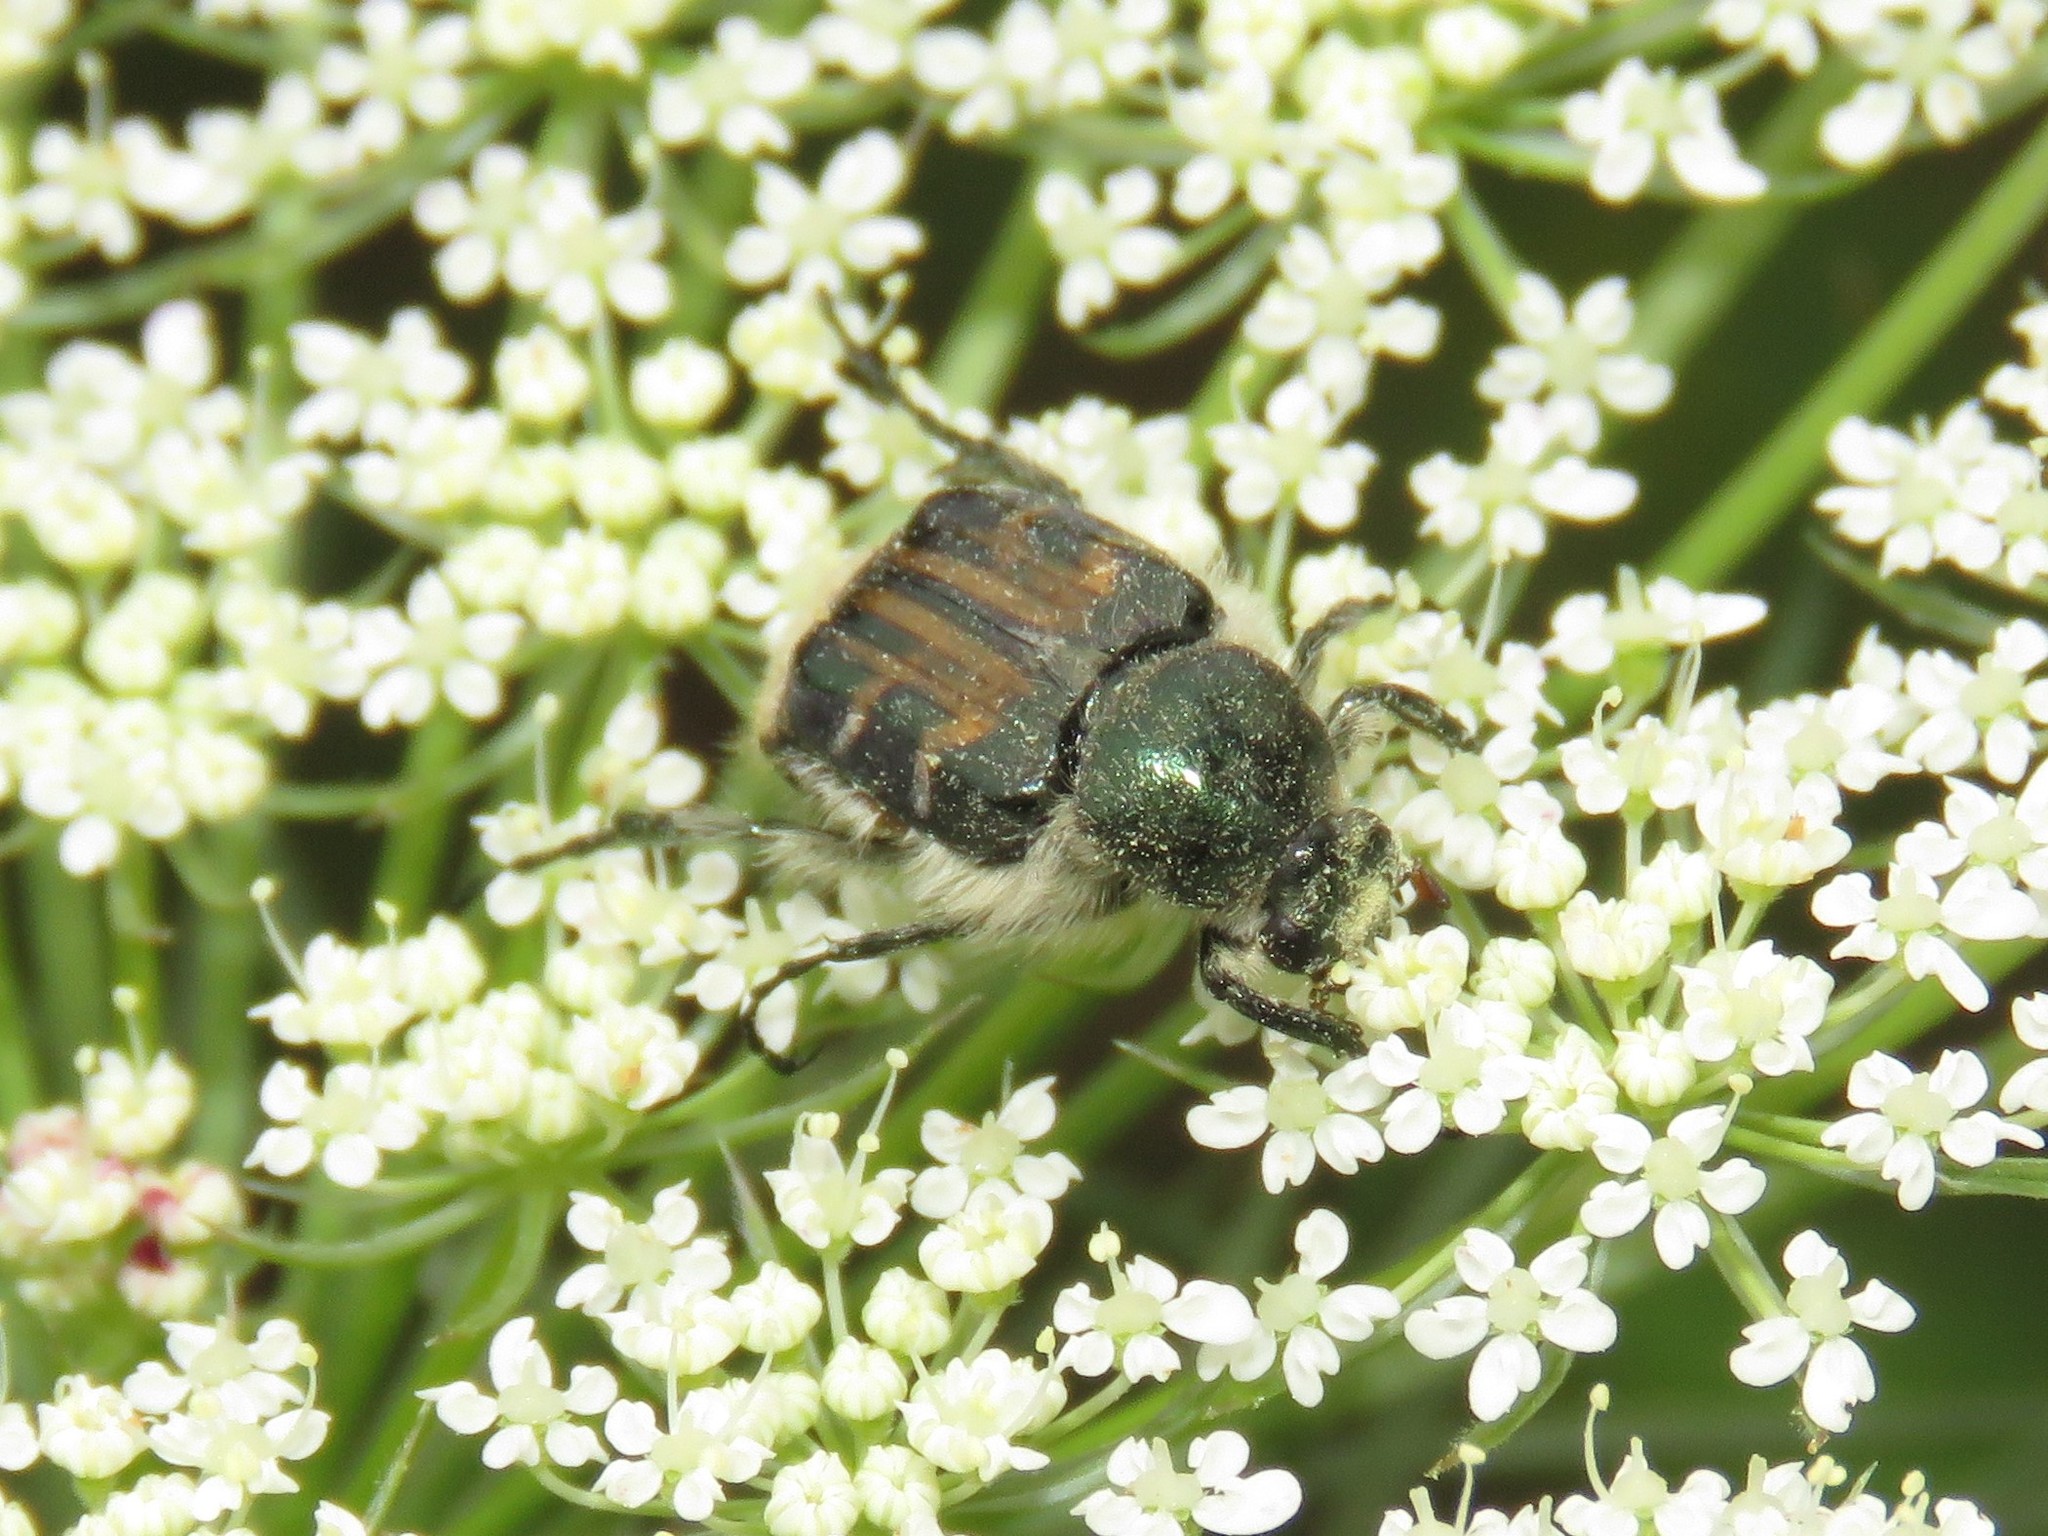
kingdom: Animalia
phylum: Arthropoda
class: Insecta
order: Coleoptera
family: Scarabaeidae
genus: Trichiotinus
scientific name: Trichiotinus assimilis
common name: Bee-mimic beetle
